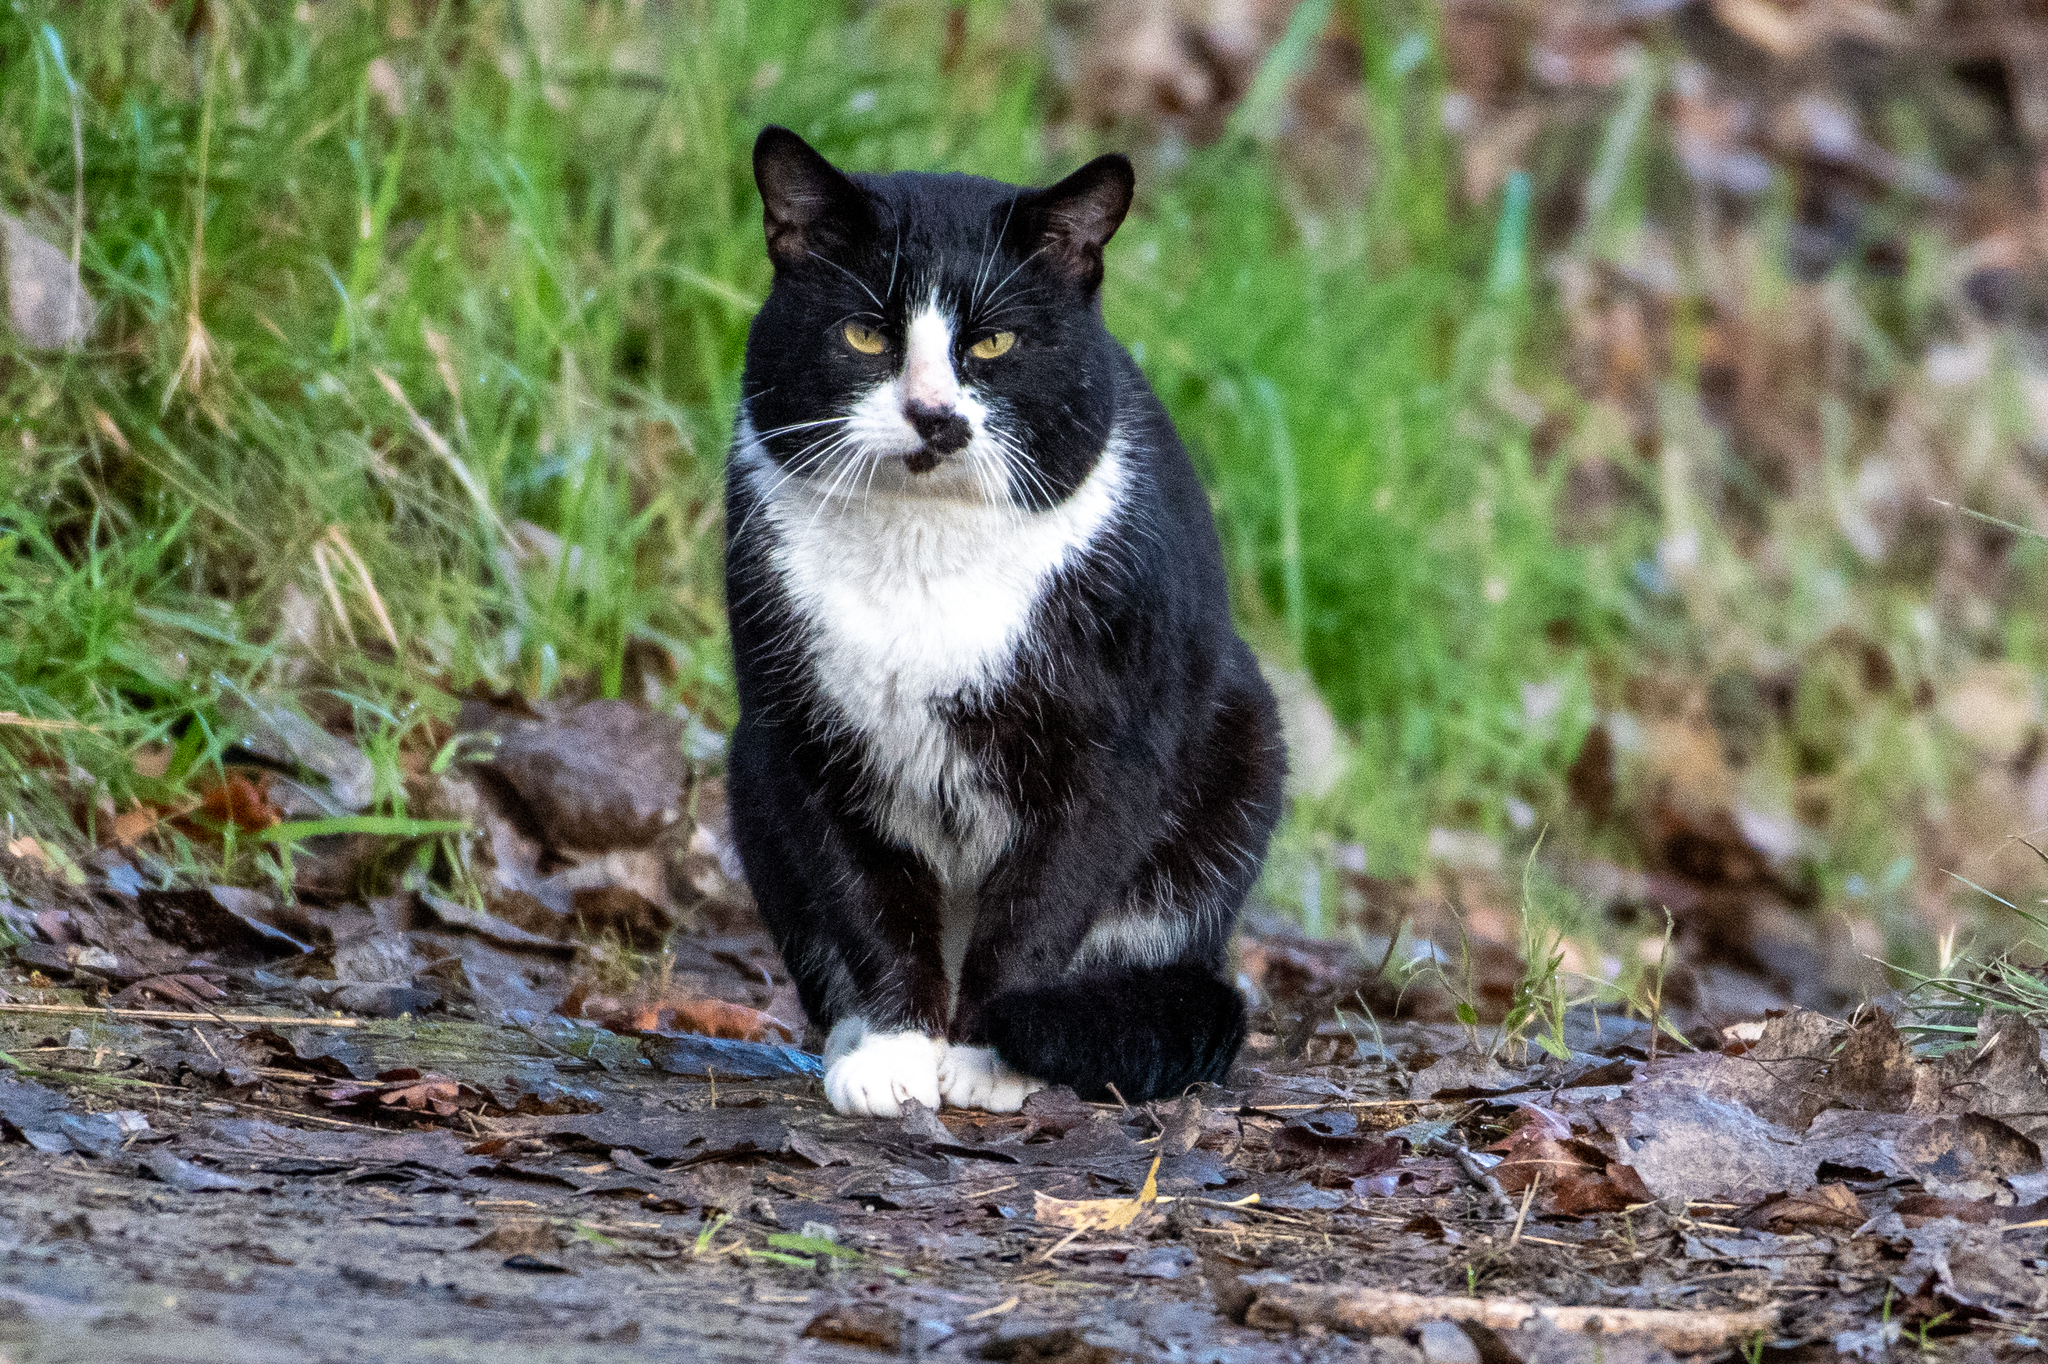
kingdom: Animalia
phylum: Chordata
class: Mammalia
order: Carnivora
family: Felidae
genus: Felis
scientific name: Felis catus
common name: Domestic cat
